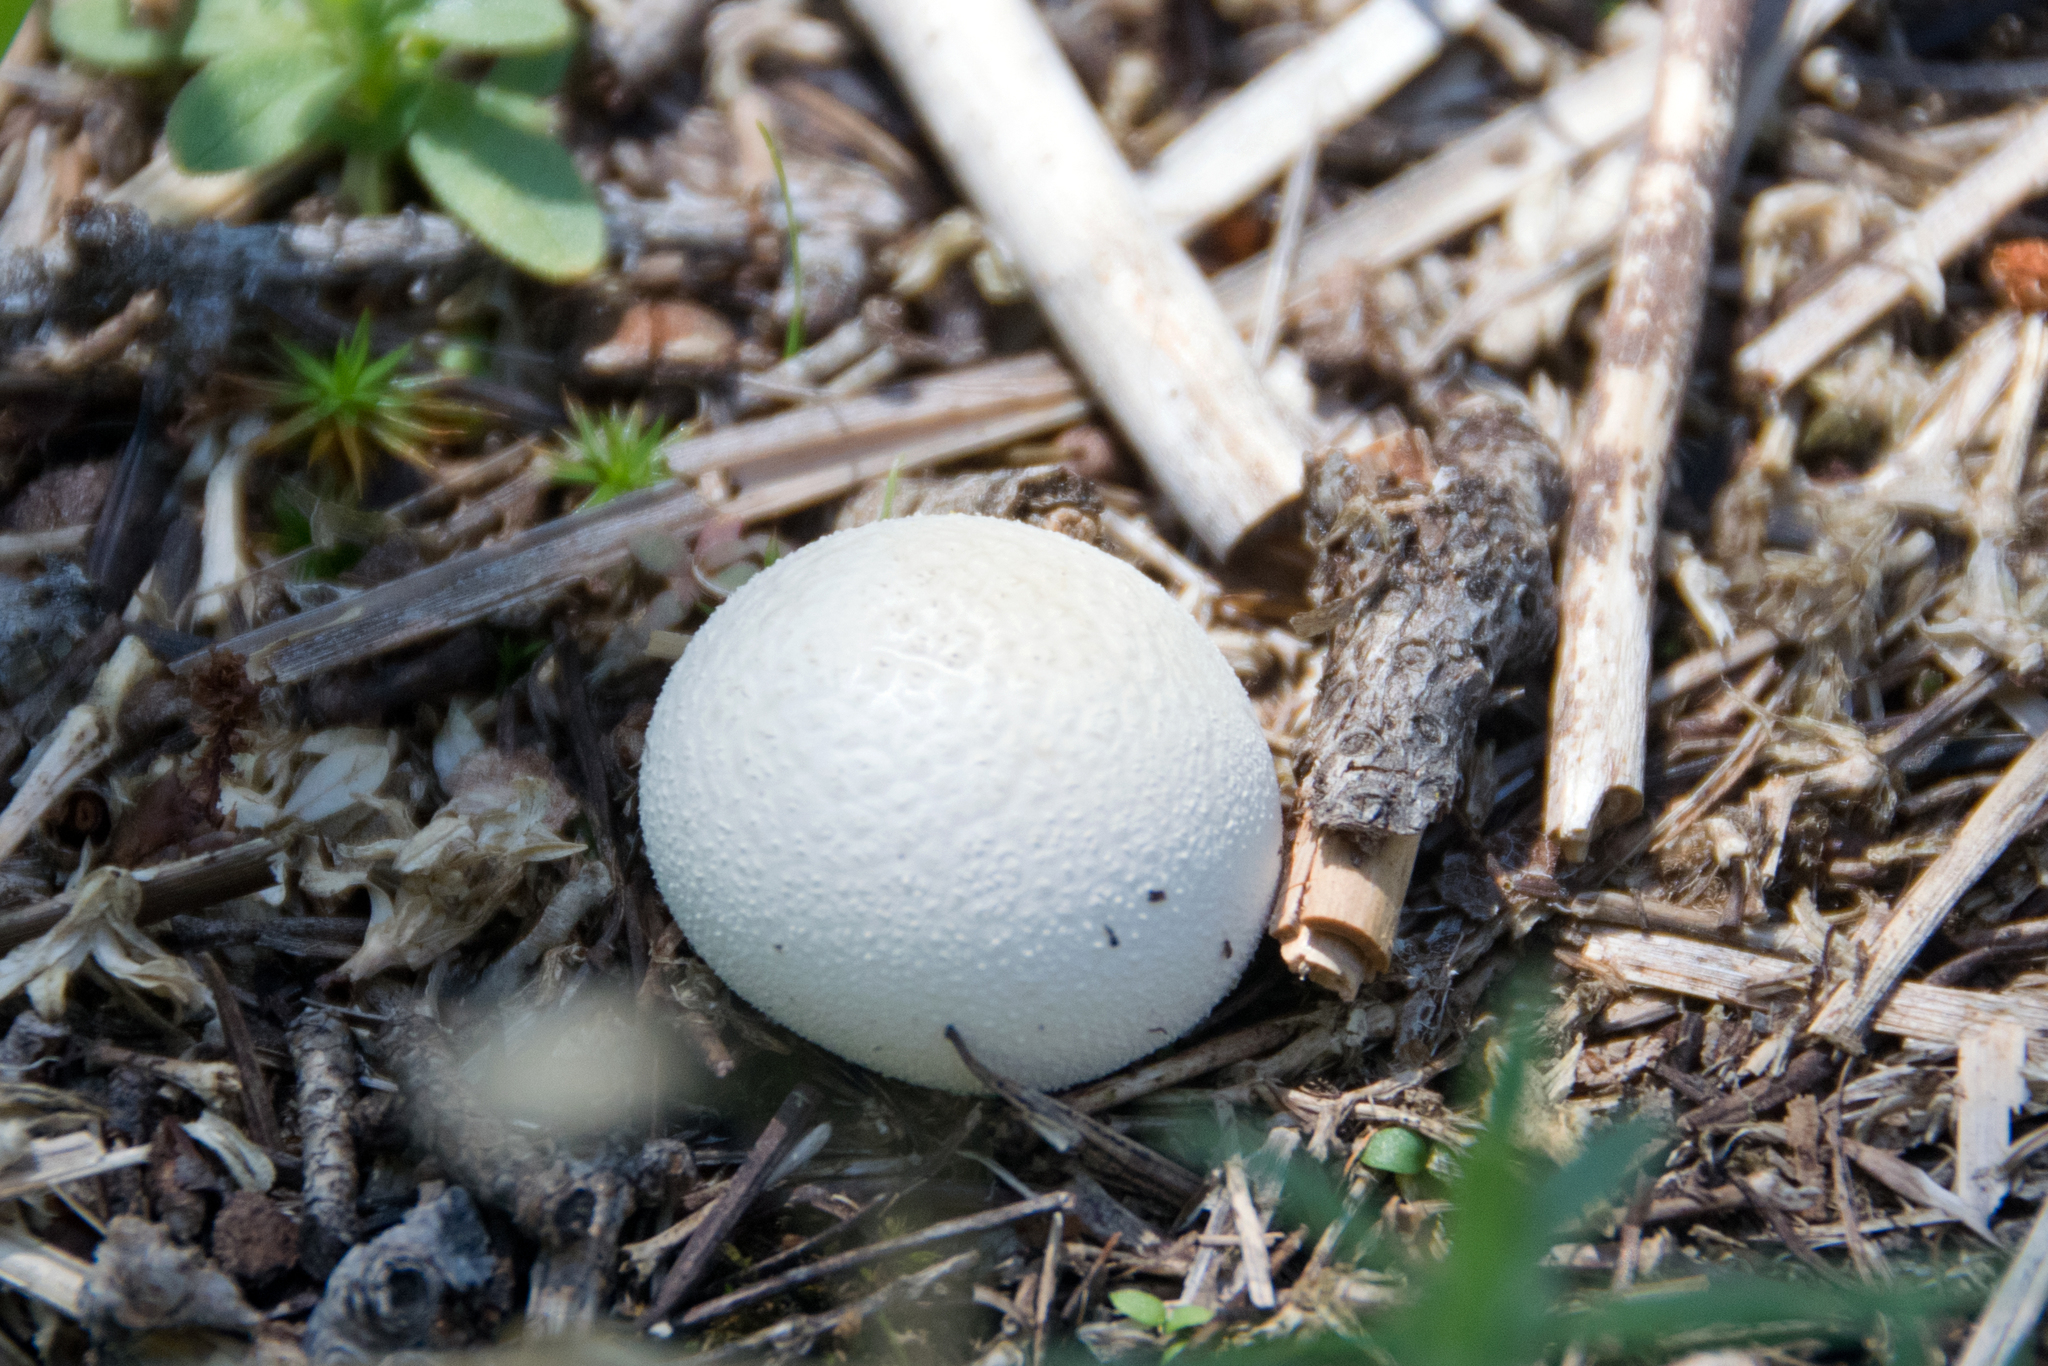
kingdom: Fungi
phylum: Basidiomycota
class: Agaricomycetes
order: Agaricales
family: Lycoperdaceae
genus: Lycoperdon
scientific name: Lycoperdon perlatum
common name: Common puffball
